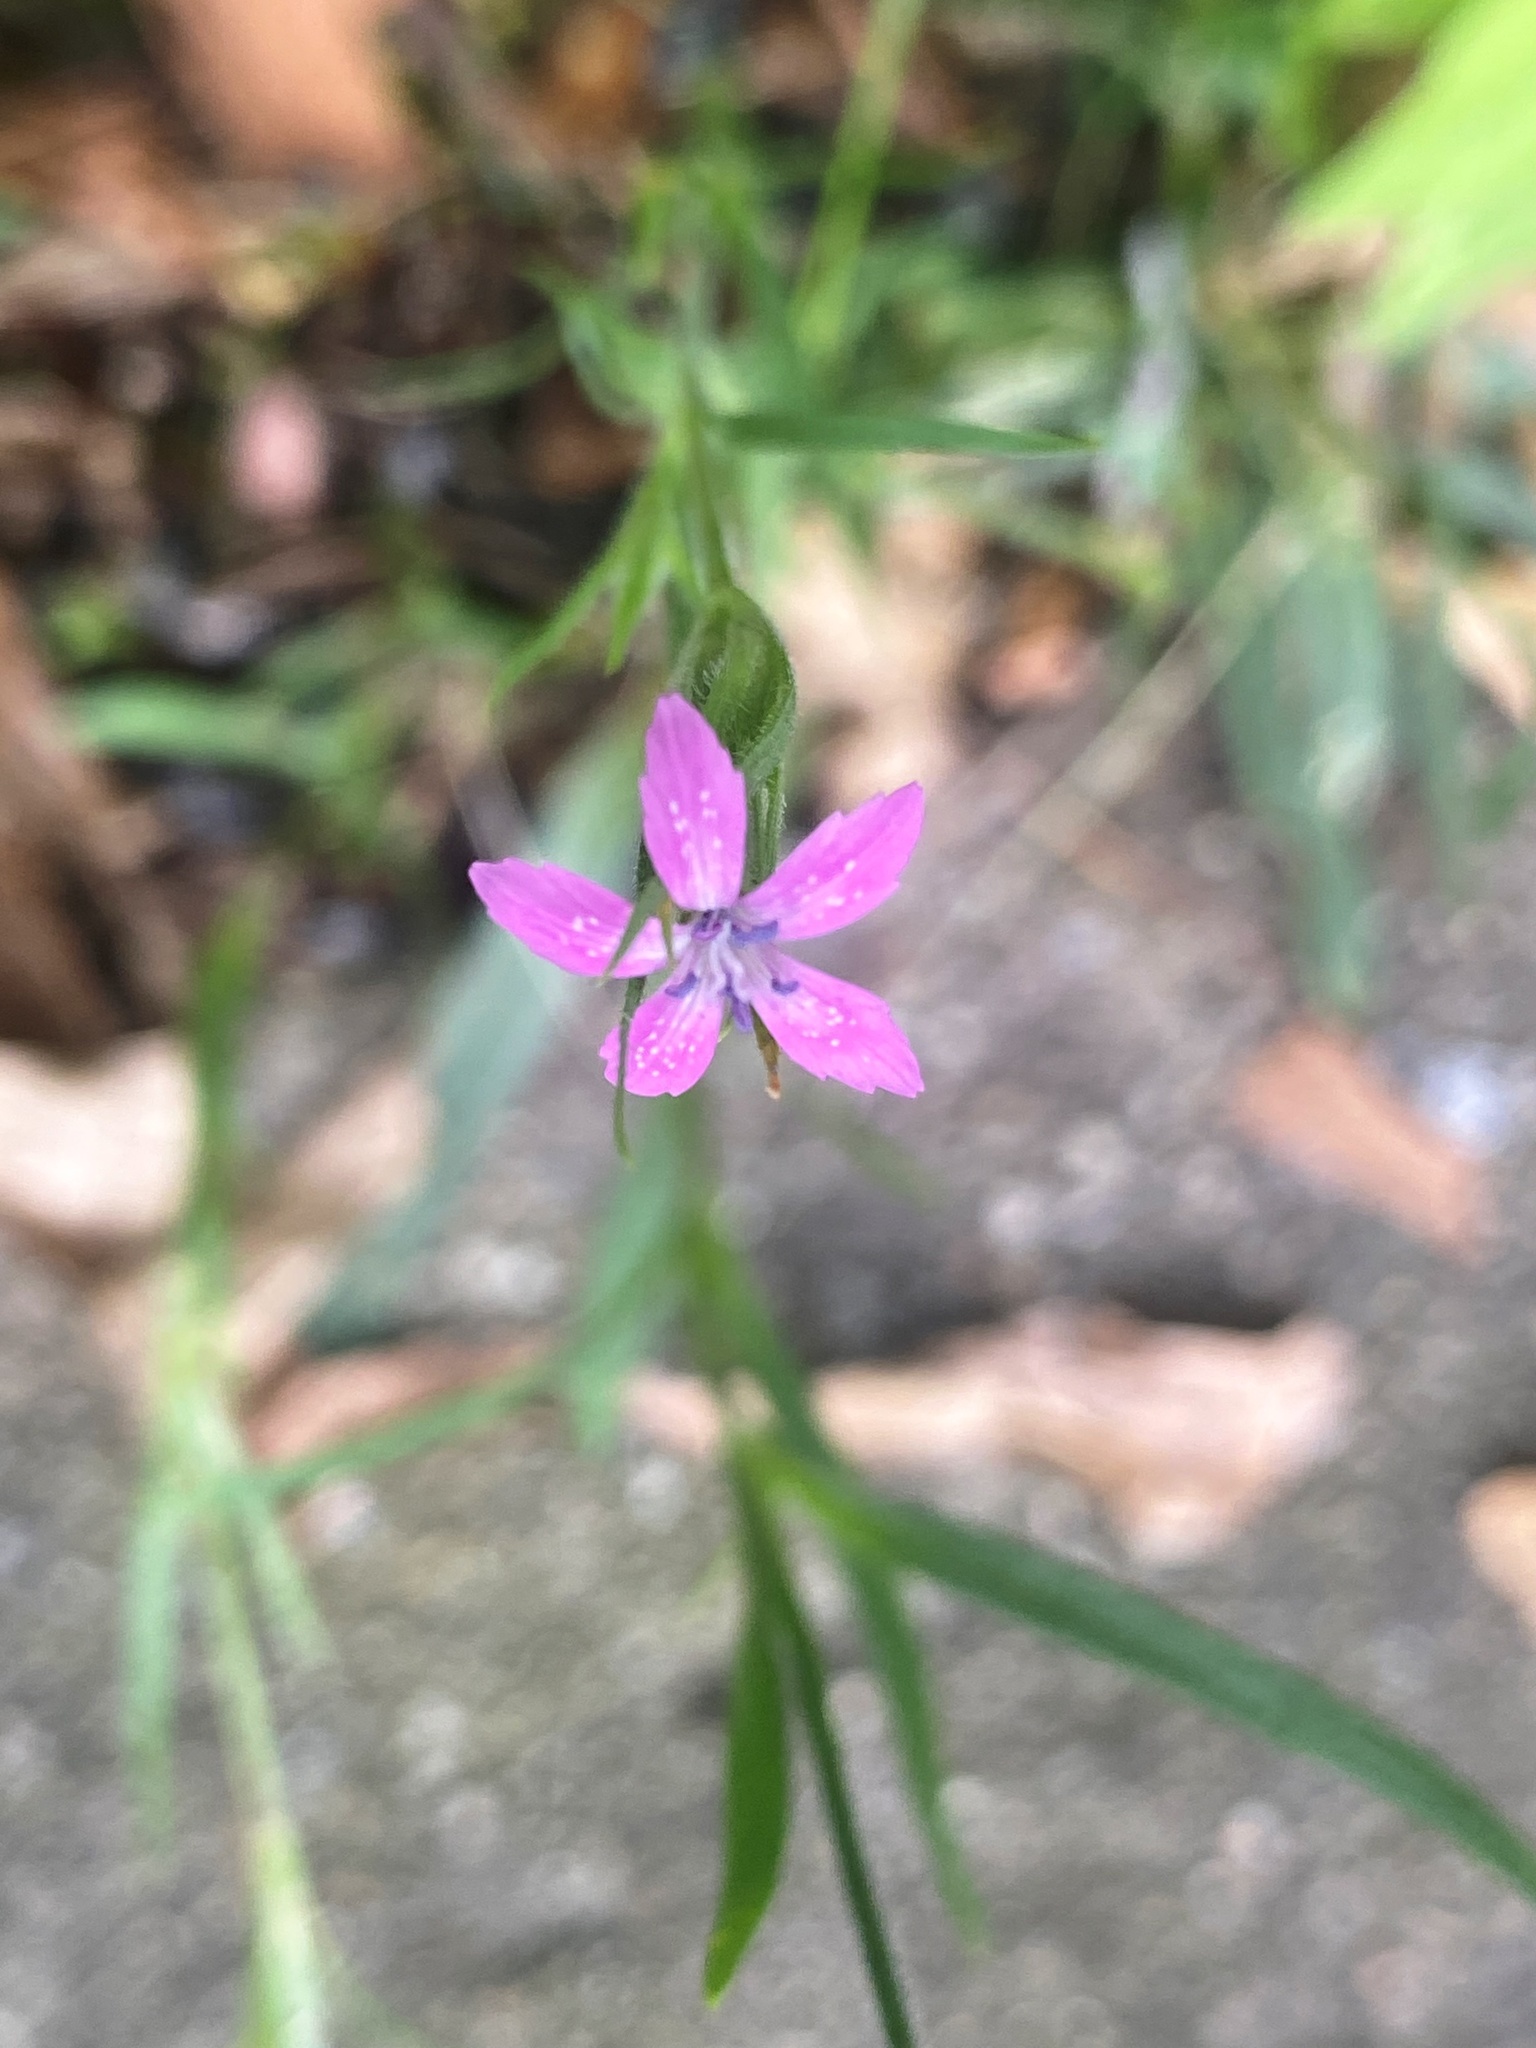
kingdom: Plantae
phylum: Tracheophyta
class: Magnoliopsida
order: Caryophyllales
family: Caryophyllaceae
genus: Dianthus
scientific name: Dianthus armeria
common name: Deptford pink
